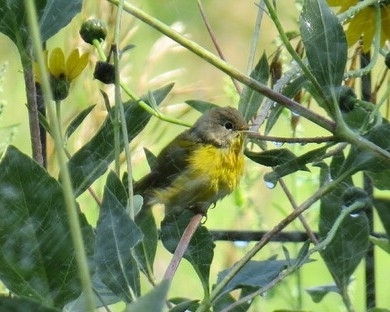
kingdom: Animalia
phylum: Chordata
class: Aves
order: Passeriformes
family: Parulidae
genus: Leiothlypis
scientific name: Leiothlypis ruficapilla
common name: Nashville warbler
